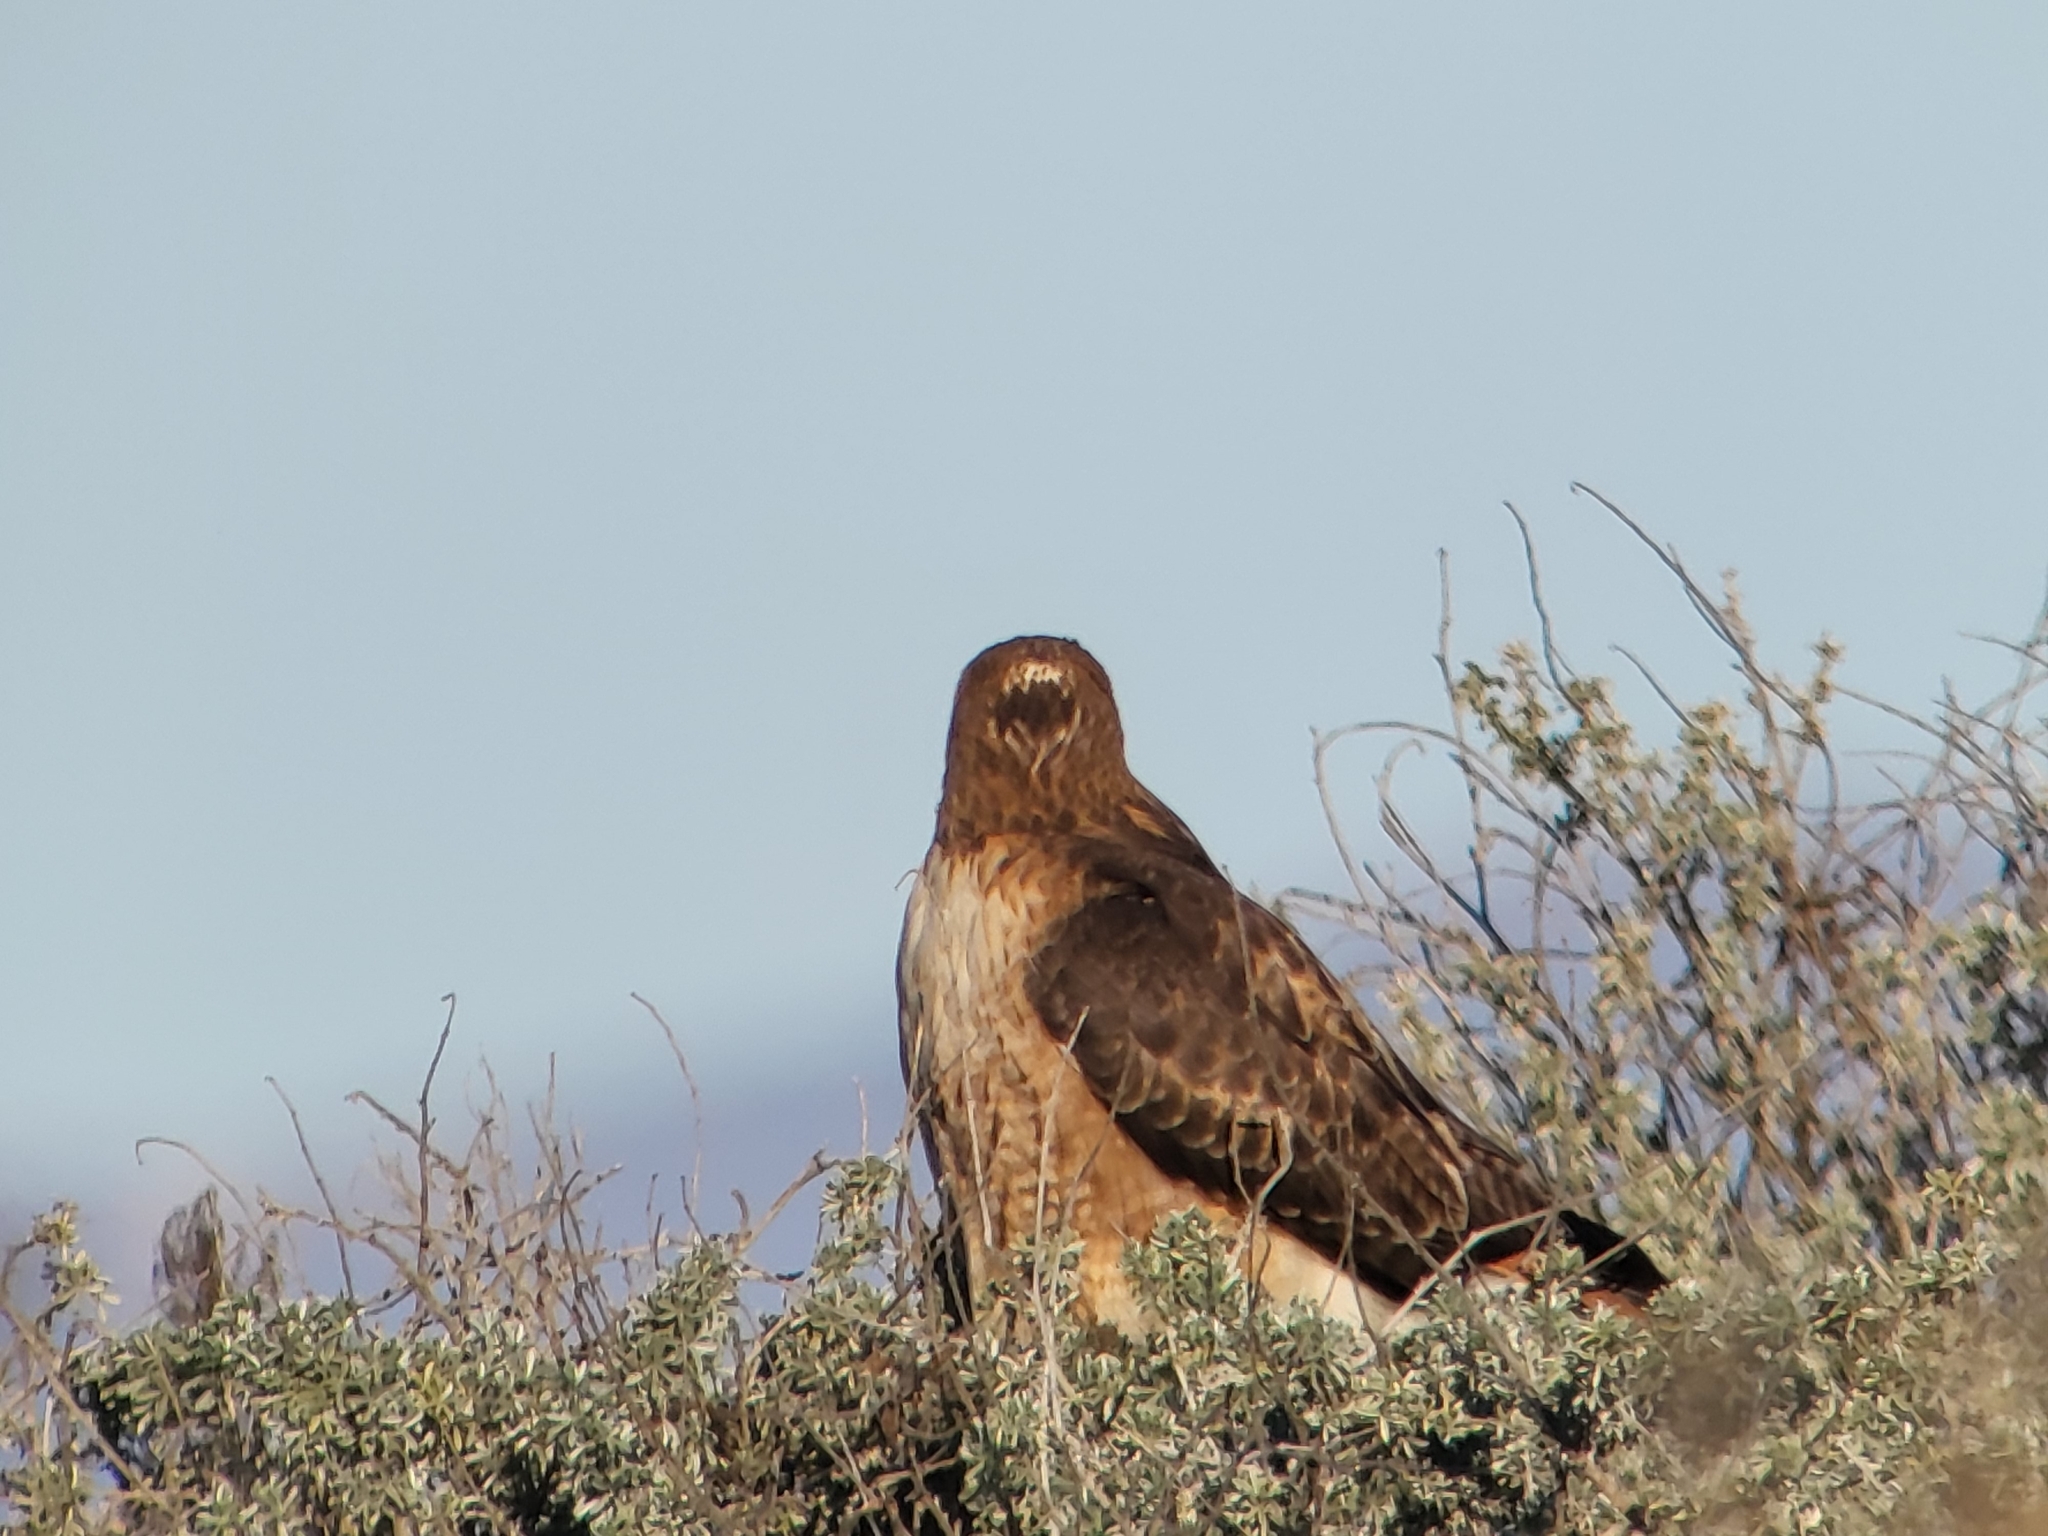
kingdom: Animalia
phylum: Chordata
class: Aves
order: Accipitriformes
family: Accipitridae
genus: Buteo
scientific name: Buteo jamaicensis
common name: Red-tailed hawk
